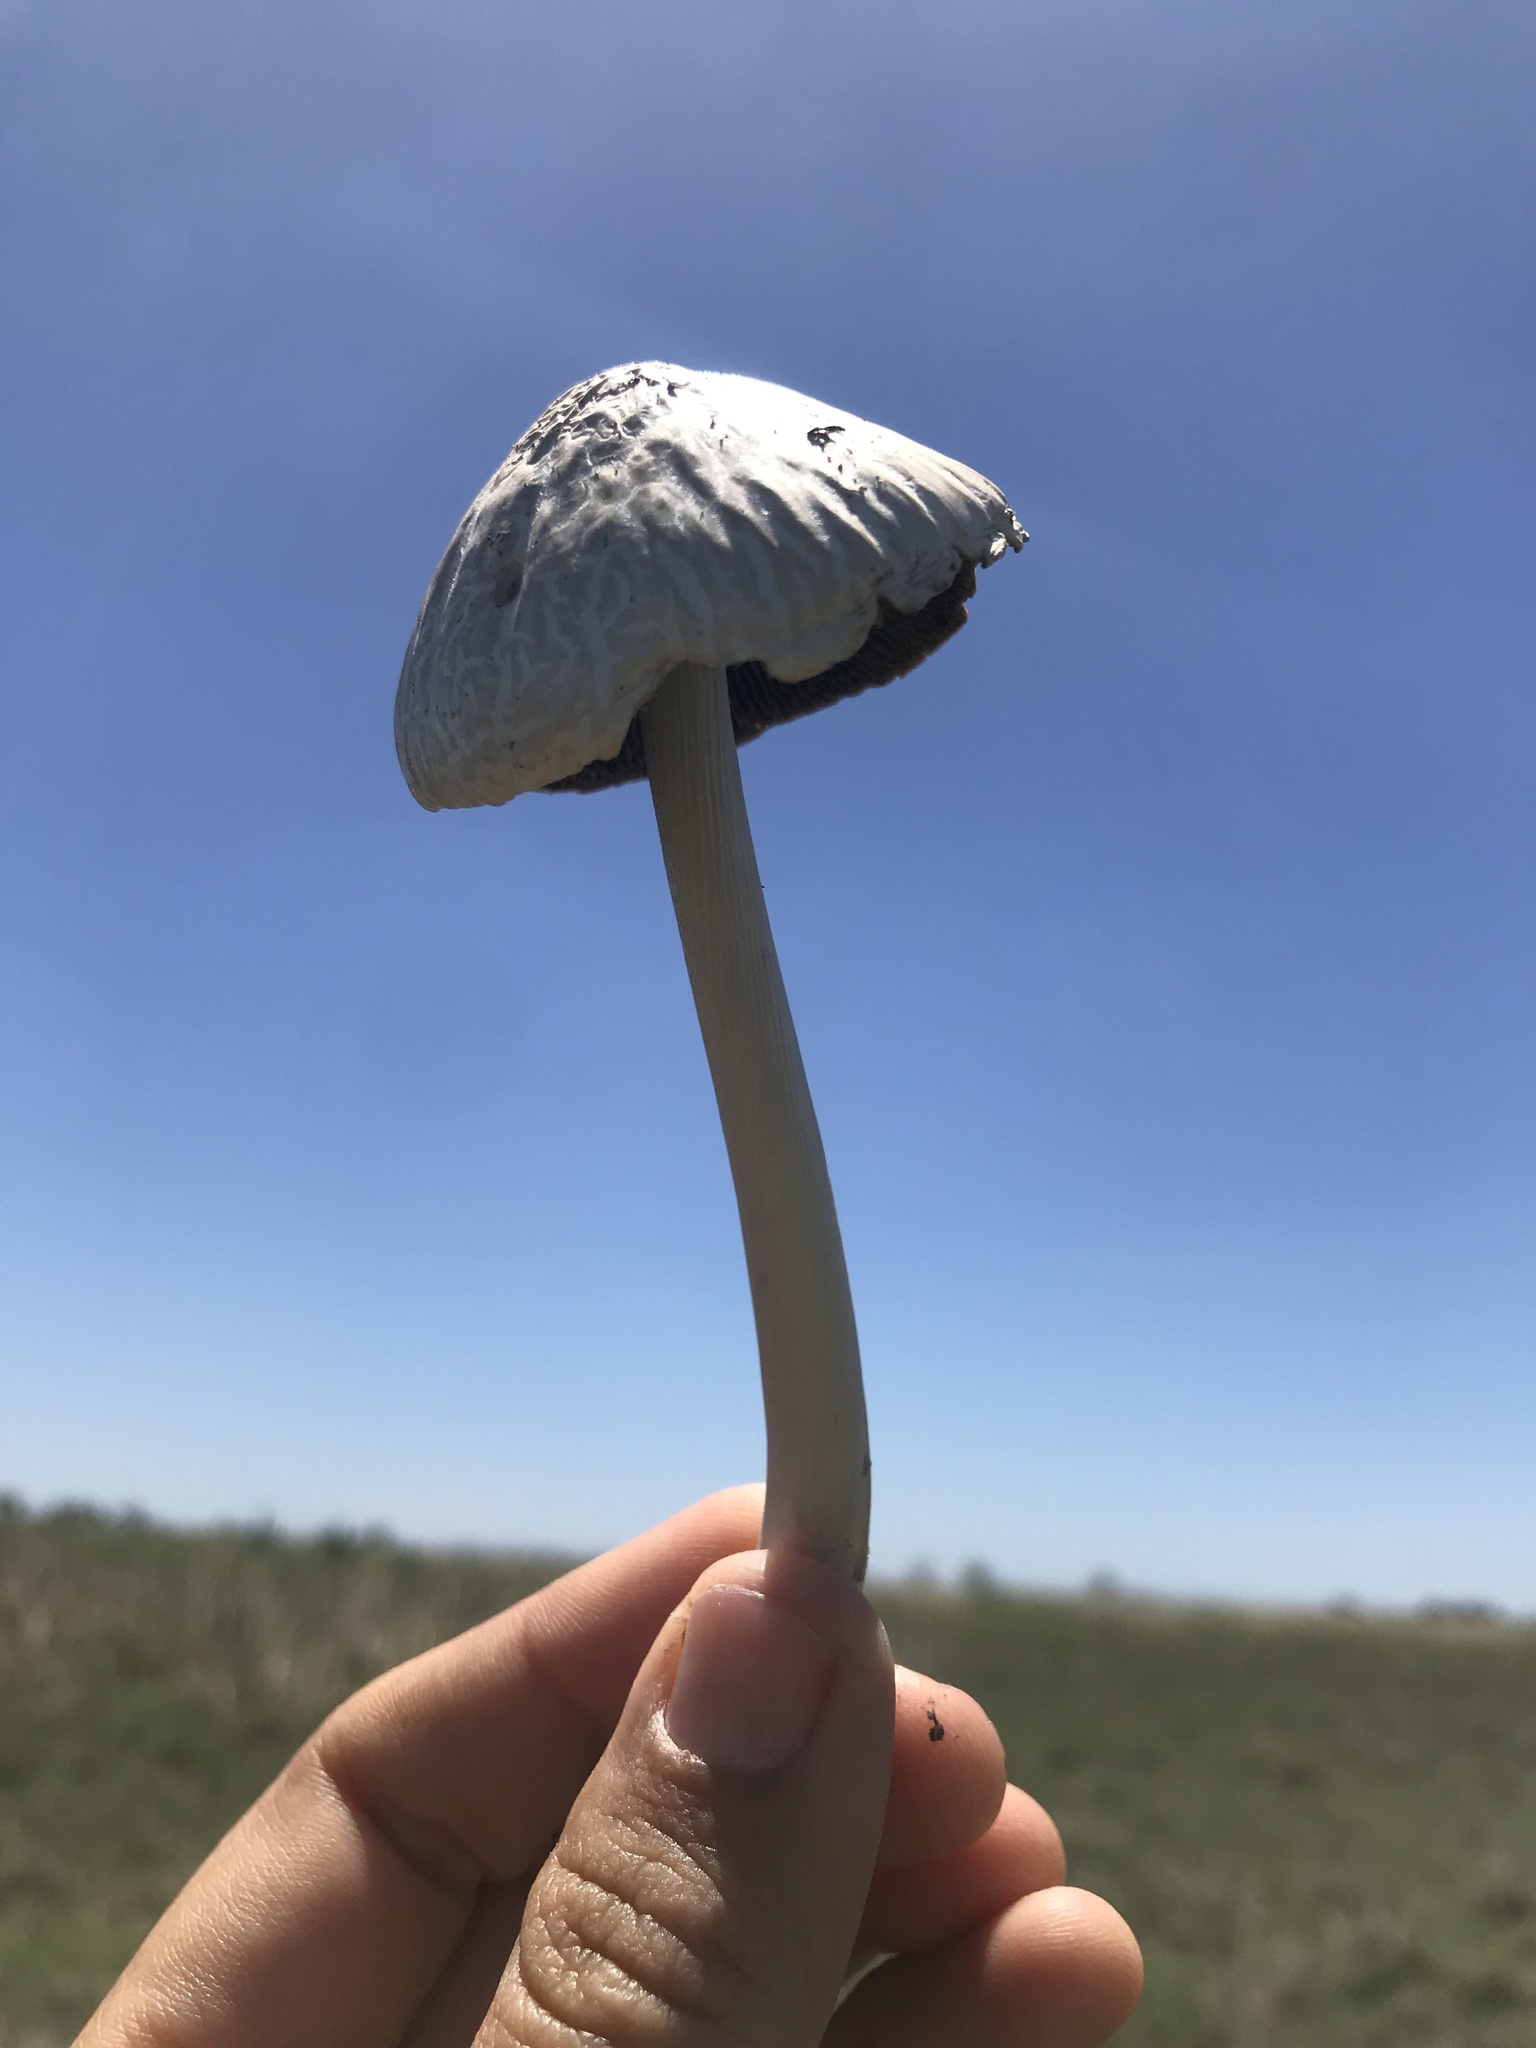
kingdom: Fungi
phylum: Basidiomycota
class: Agaricomycetes
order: Agaricales
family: Bolbitiaceae
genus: Panaeolus
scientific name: Panaeolus antillarum
